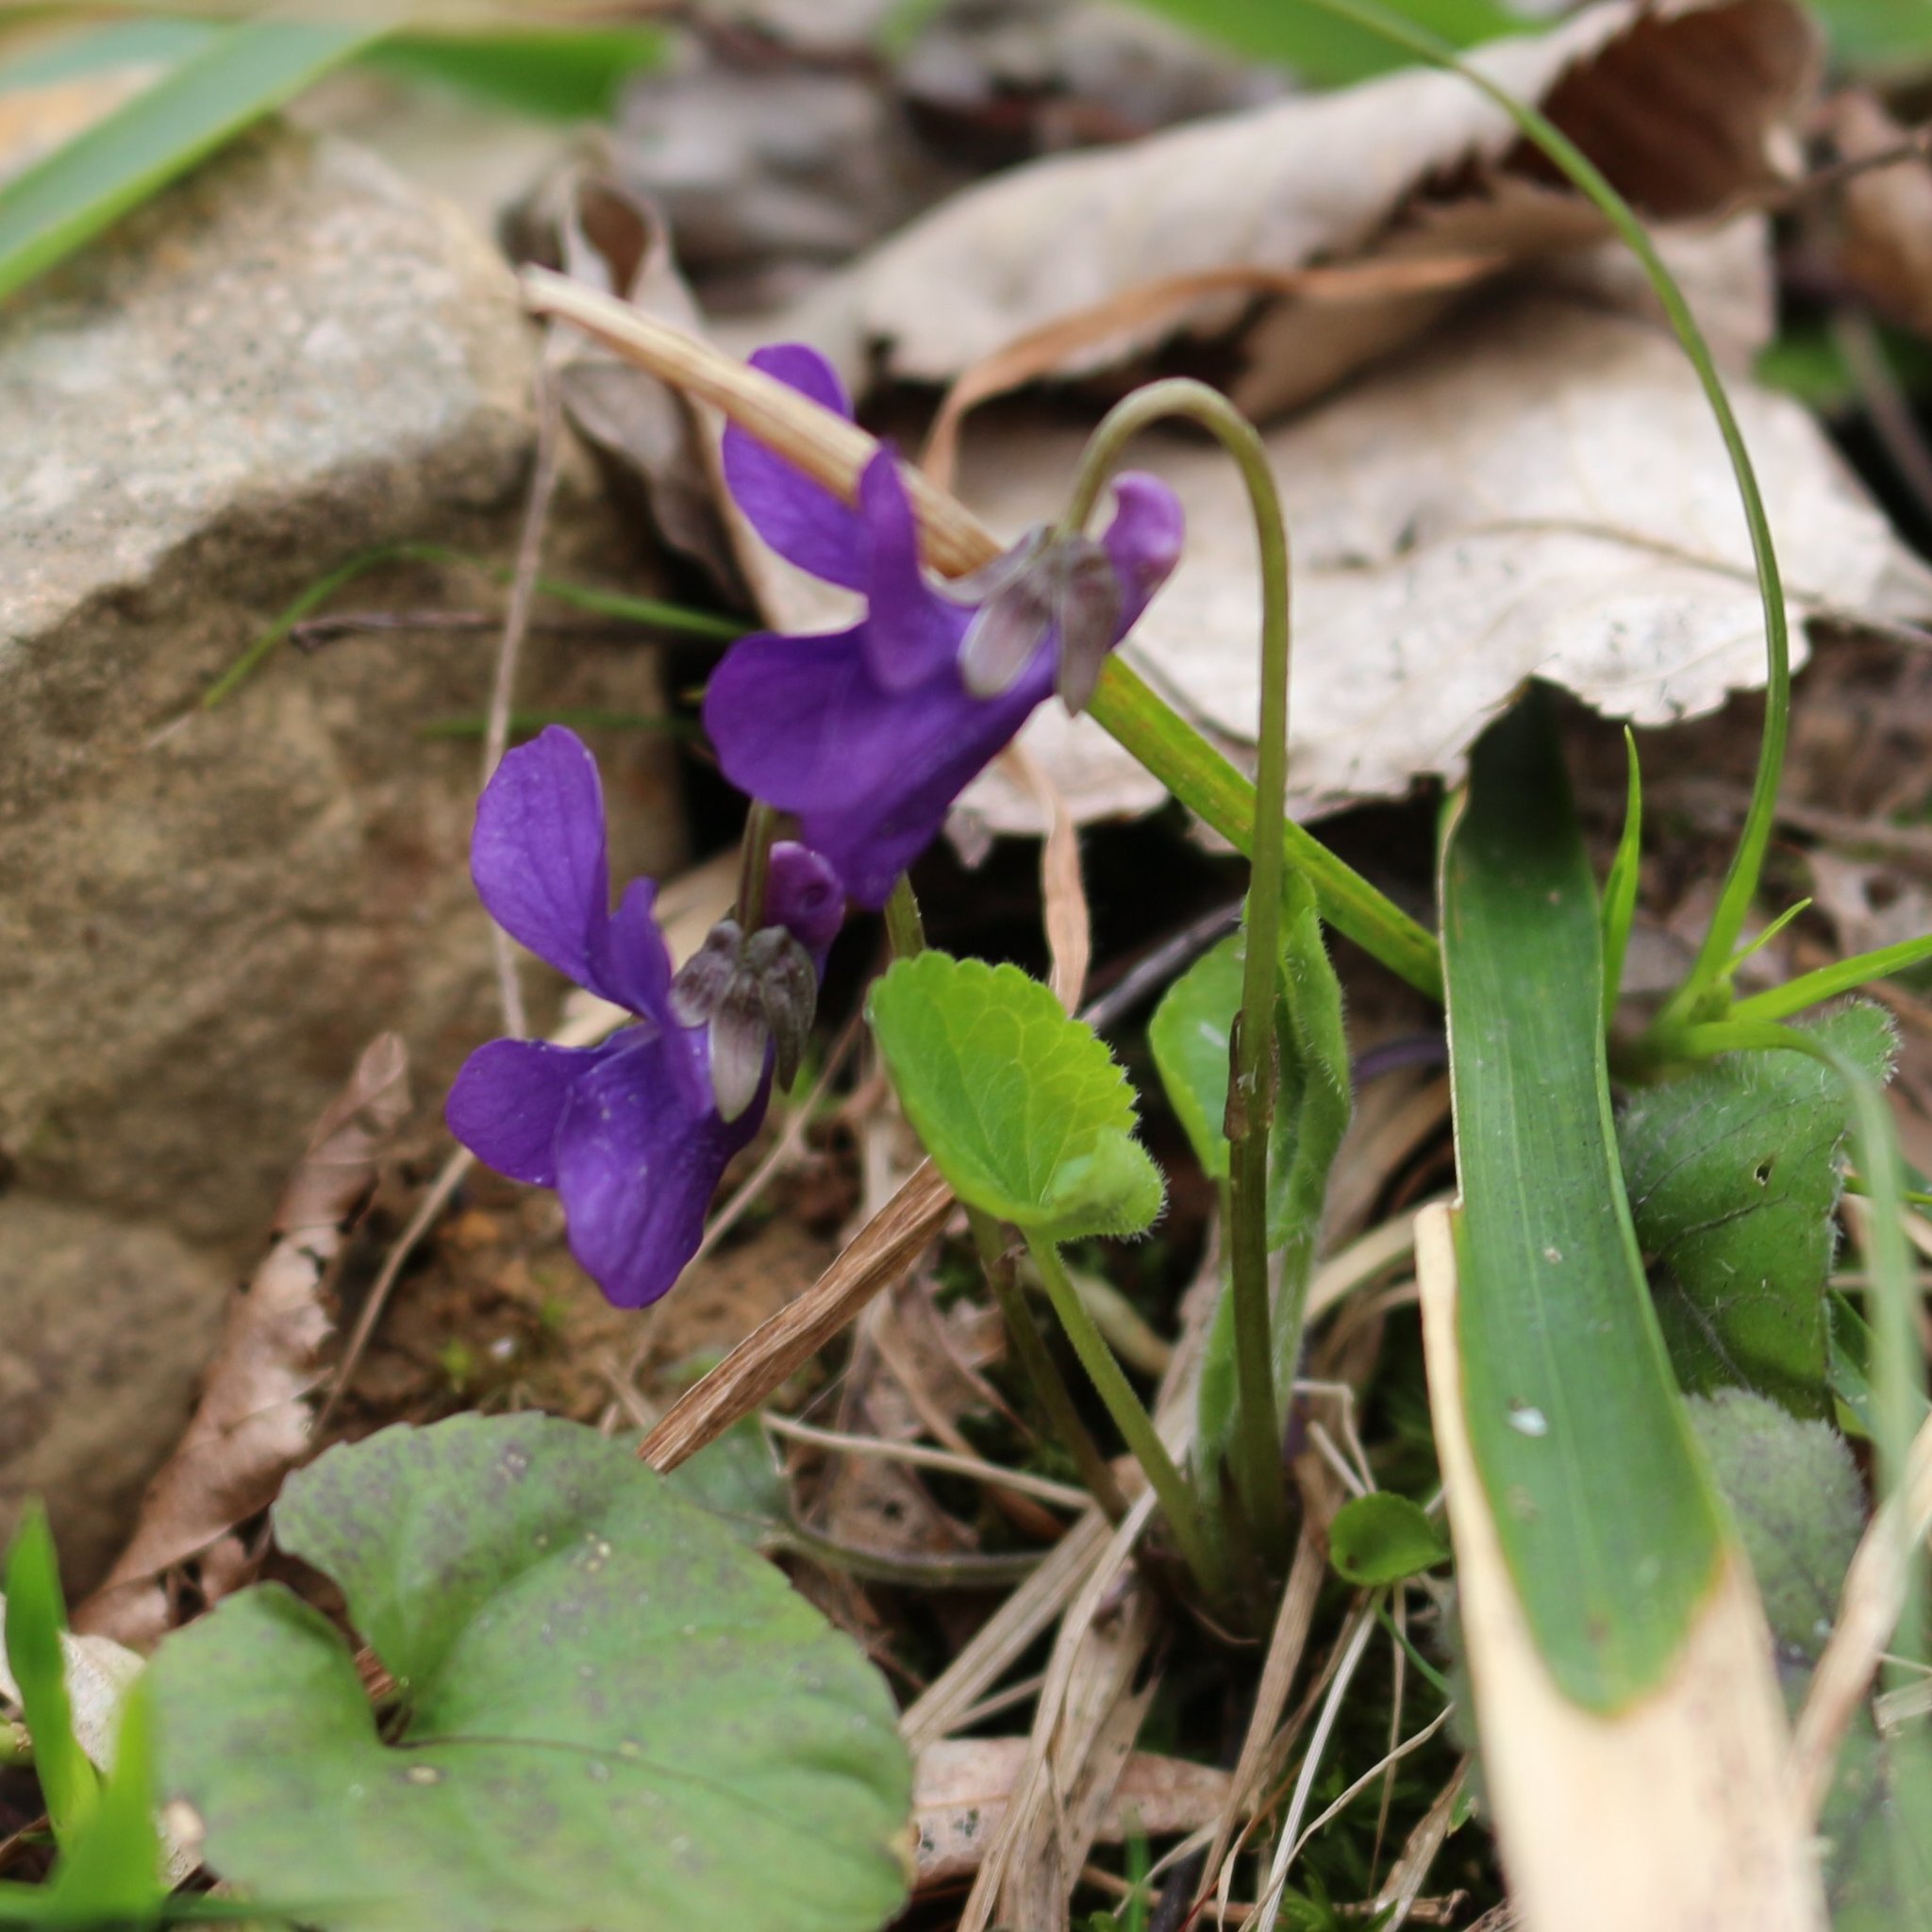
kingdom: Plantae
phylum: Tracheophyta
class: Magnoliopsida
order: Malpighiales
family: Violaceae
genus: Viola
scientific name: Viola odorata
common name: Sweet violet
